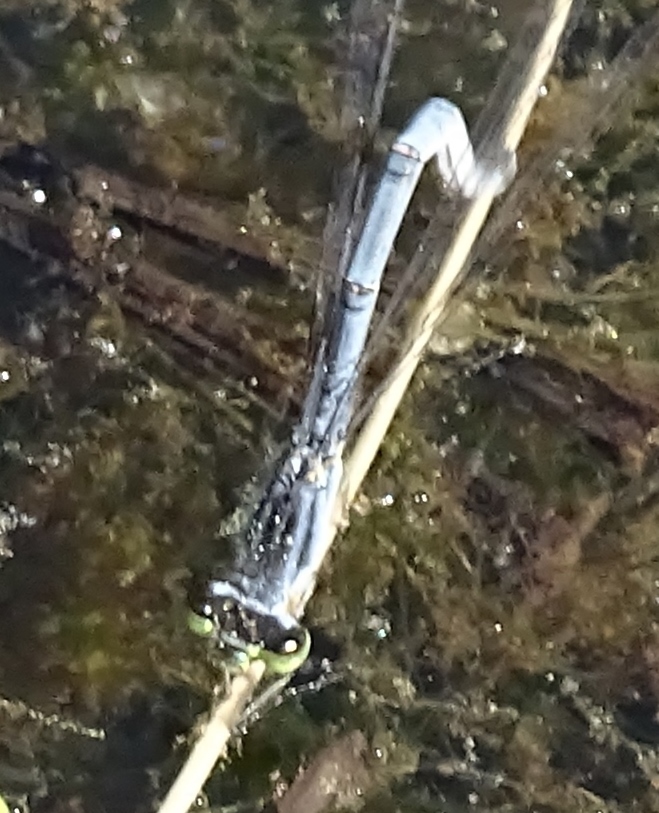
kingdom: Animalia
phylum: Arthropoda
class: Insecta
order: Odonata
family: Coenagrionidae
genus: Ischnura
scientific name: Ischnura verticalis
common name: Eastern forktail
